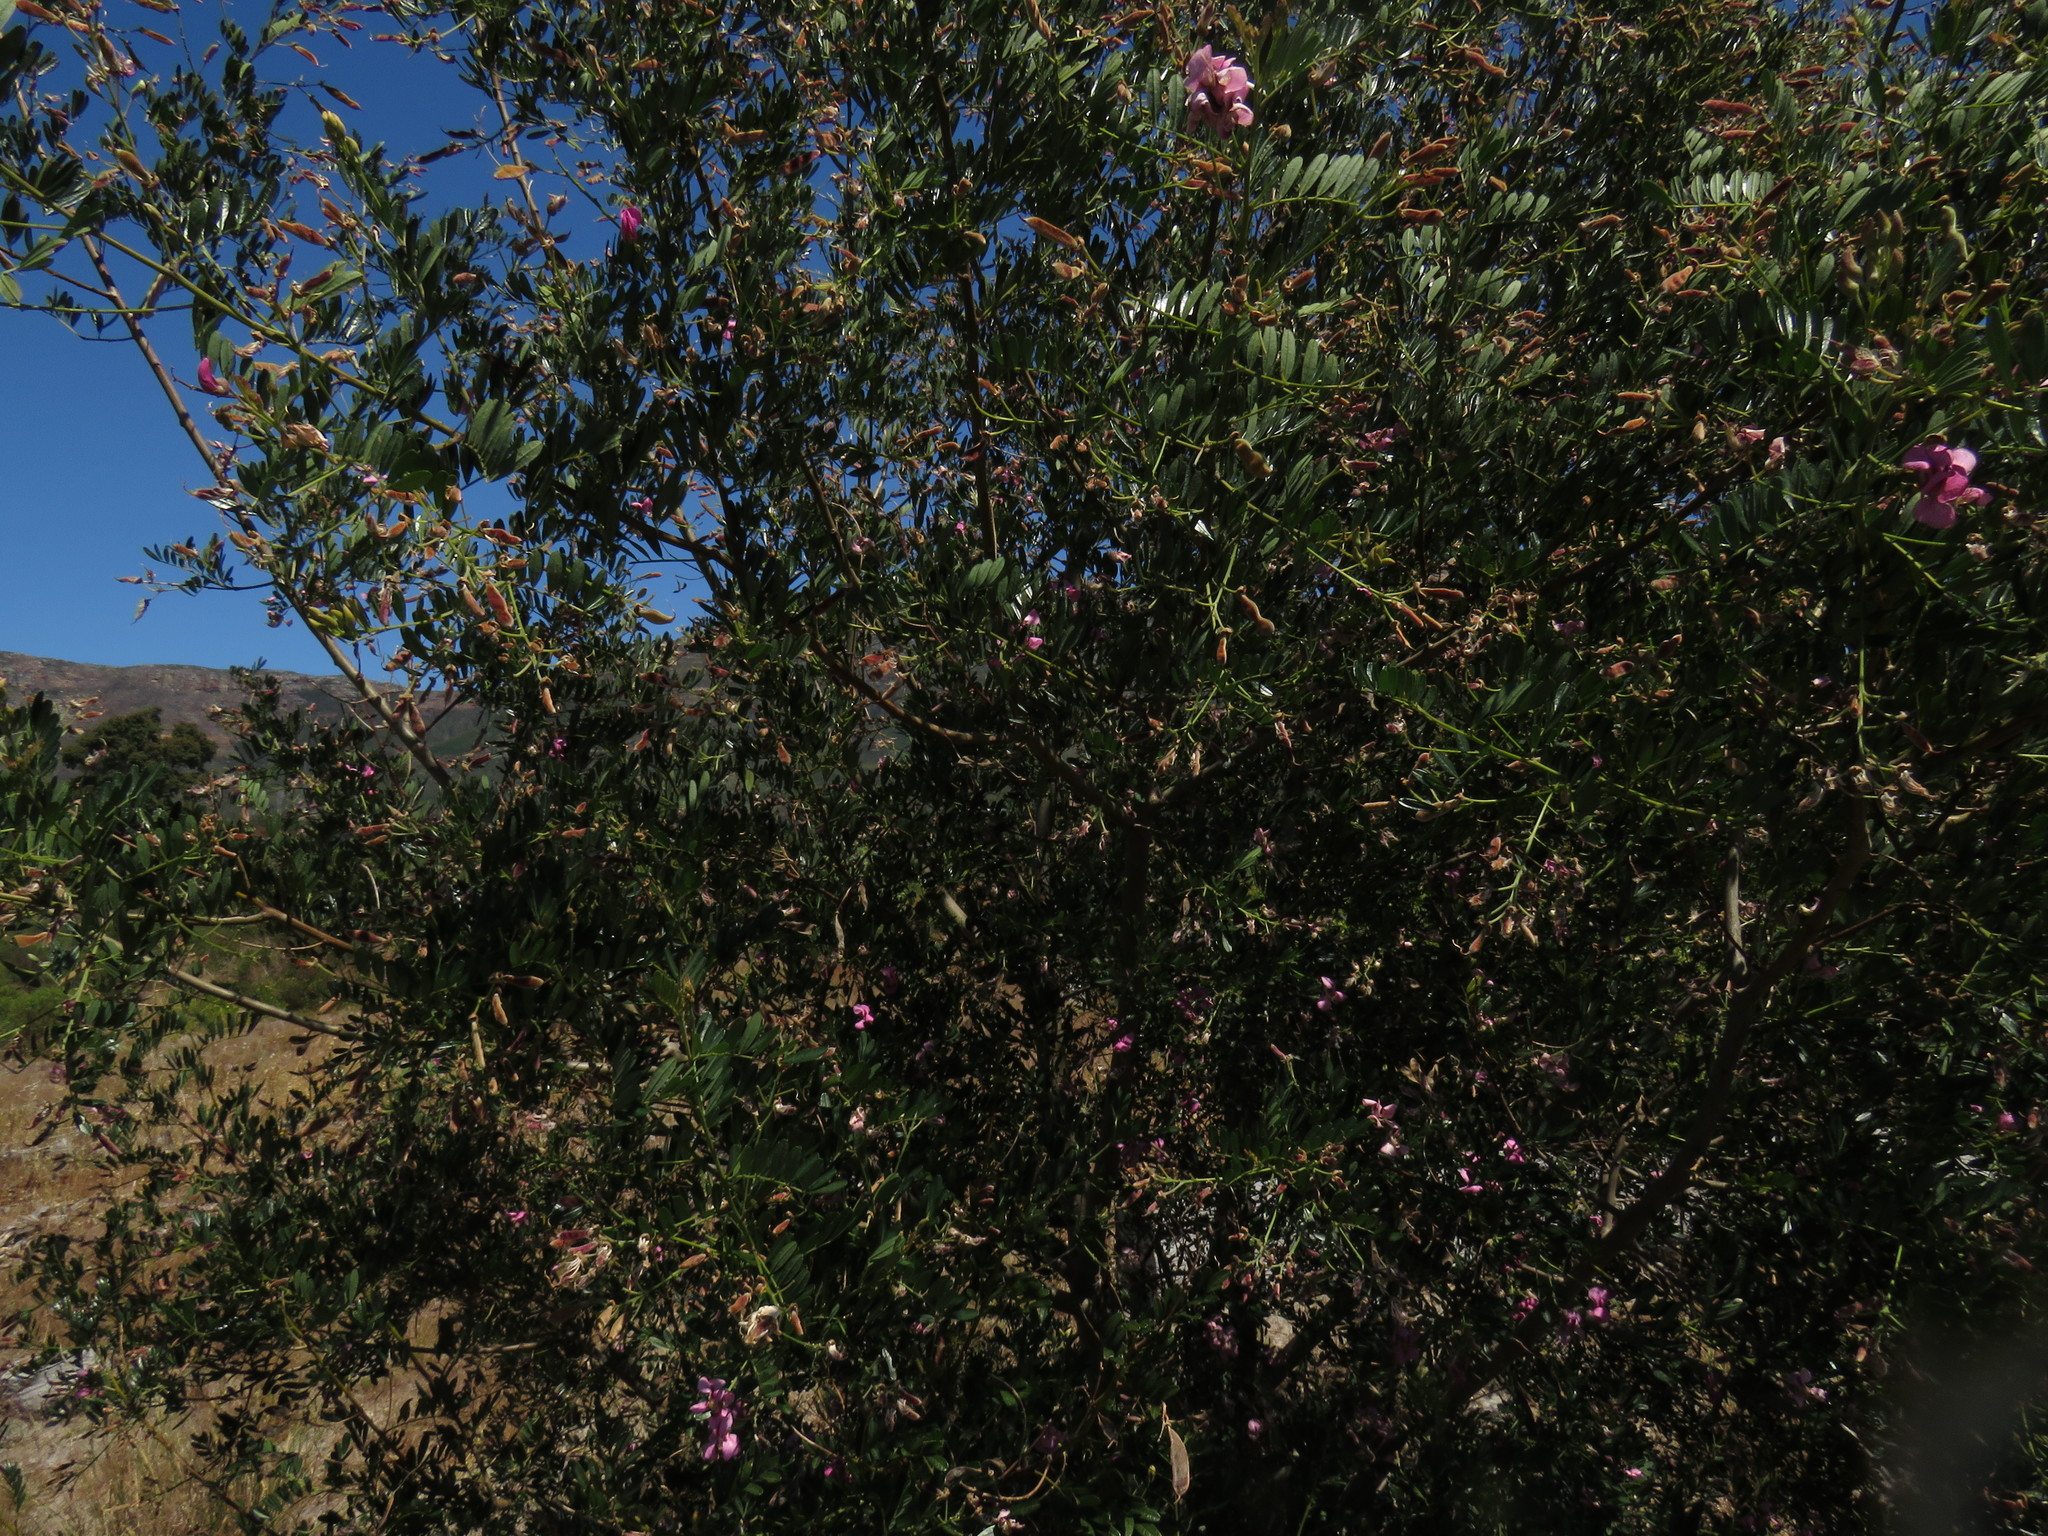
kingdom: Plantae
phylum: Tracheophyta
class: Magnoliopsida
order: Fabales
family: Fabaceae
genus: Virgilia
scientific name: Virgilia oroboides
